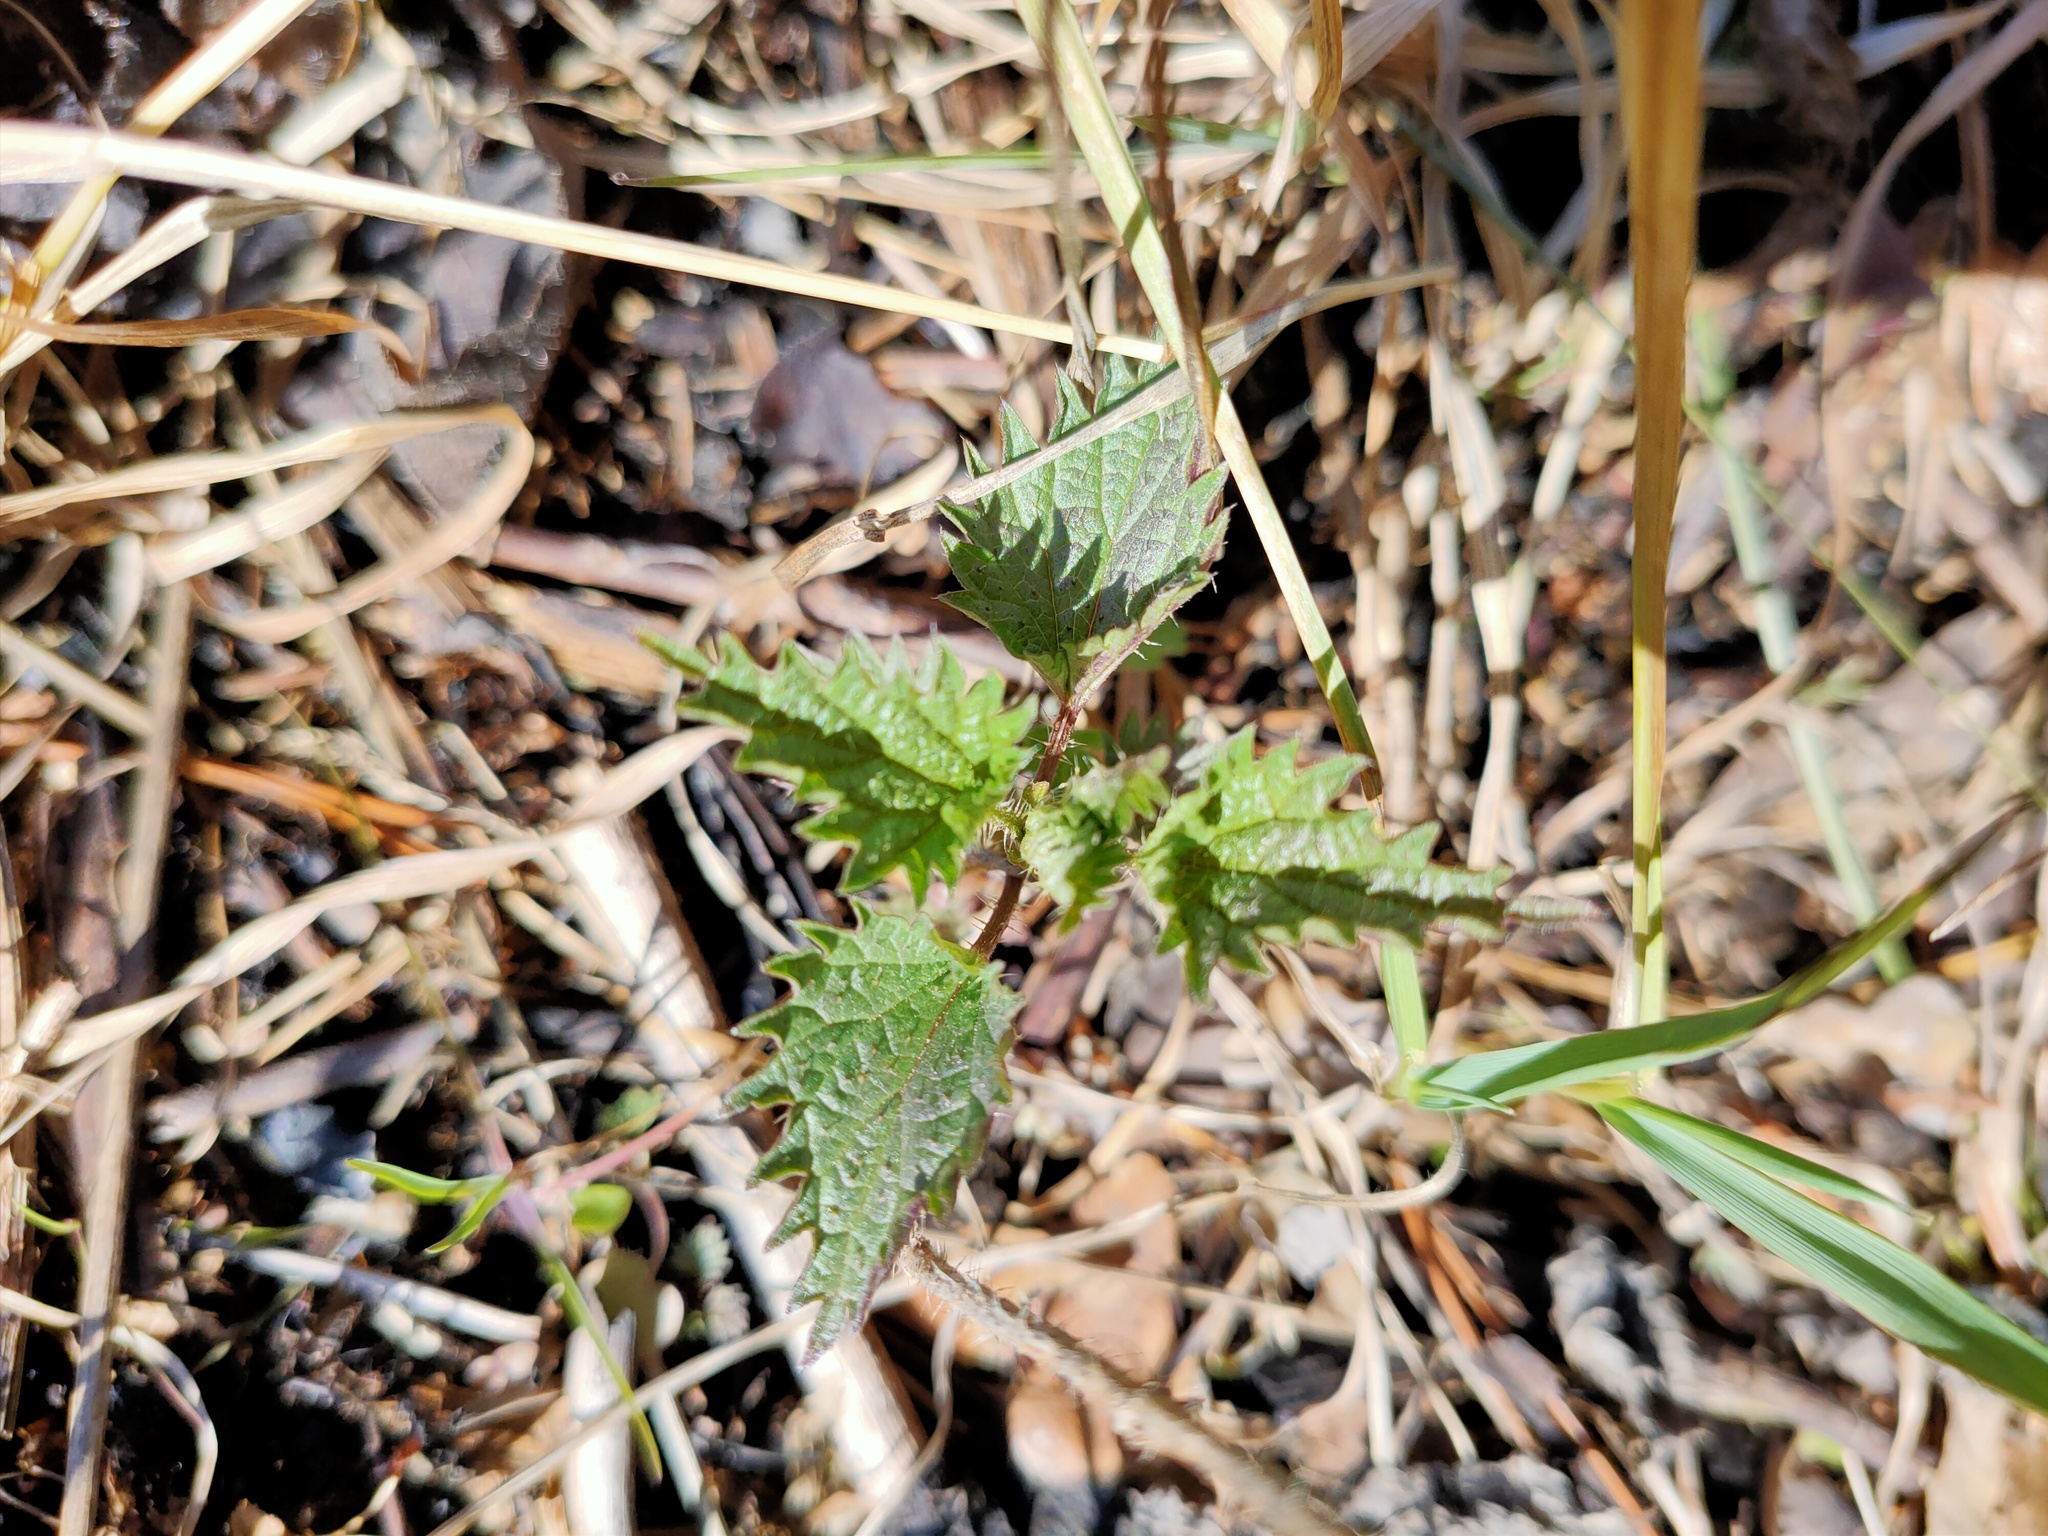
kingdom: Plantae
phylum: Tracheophyta
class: Magnoliopsida
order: Rosales
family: Urticaceae
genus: Urtica
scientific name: Urtica dioica
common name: Common nettle
